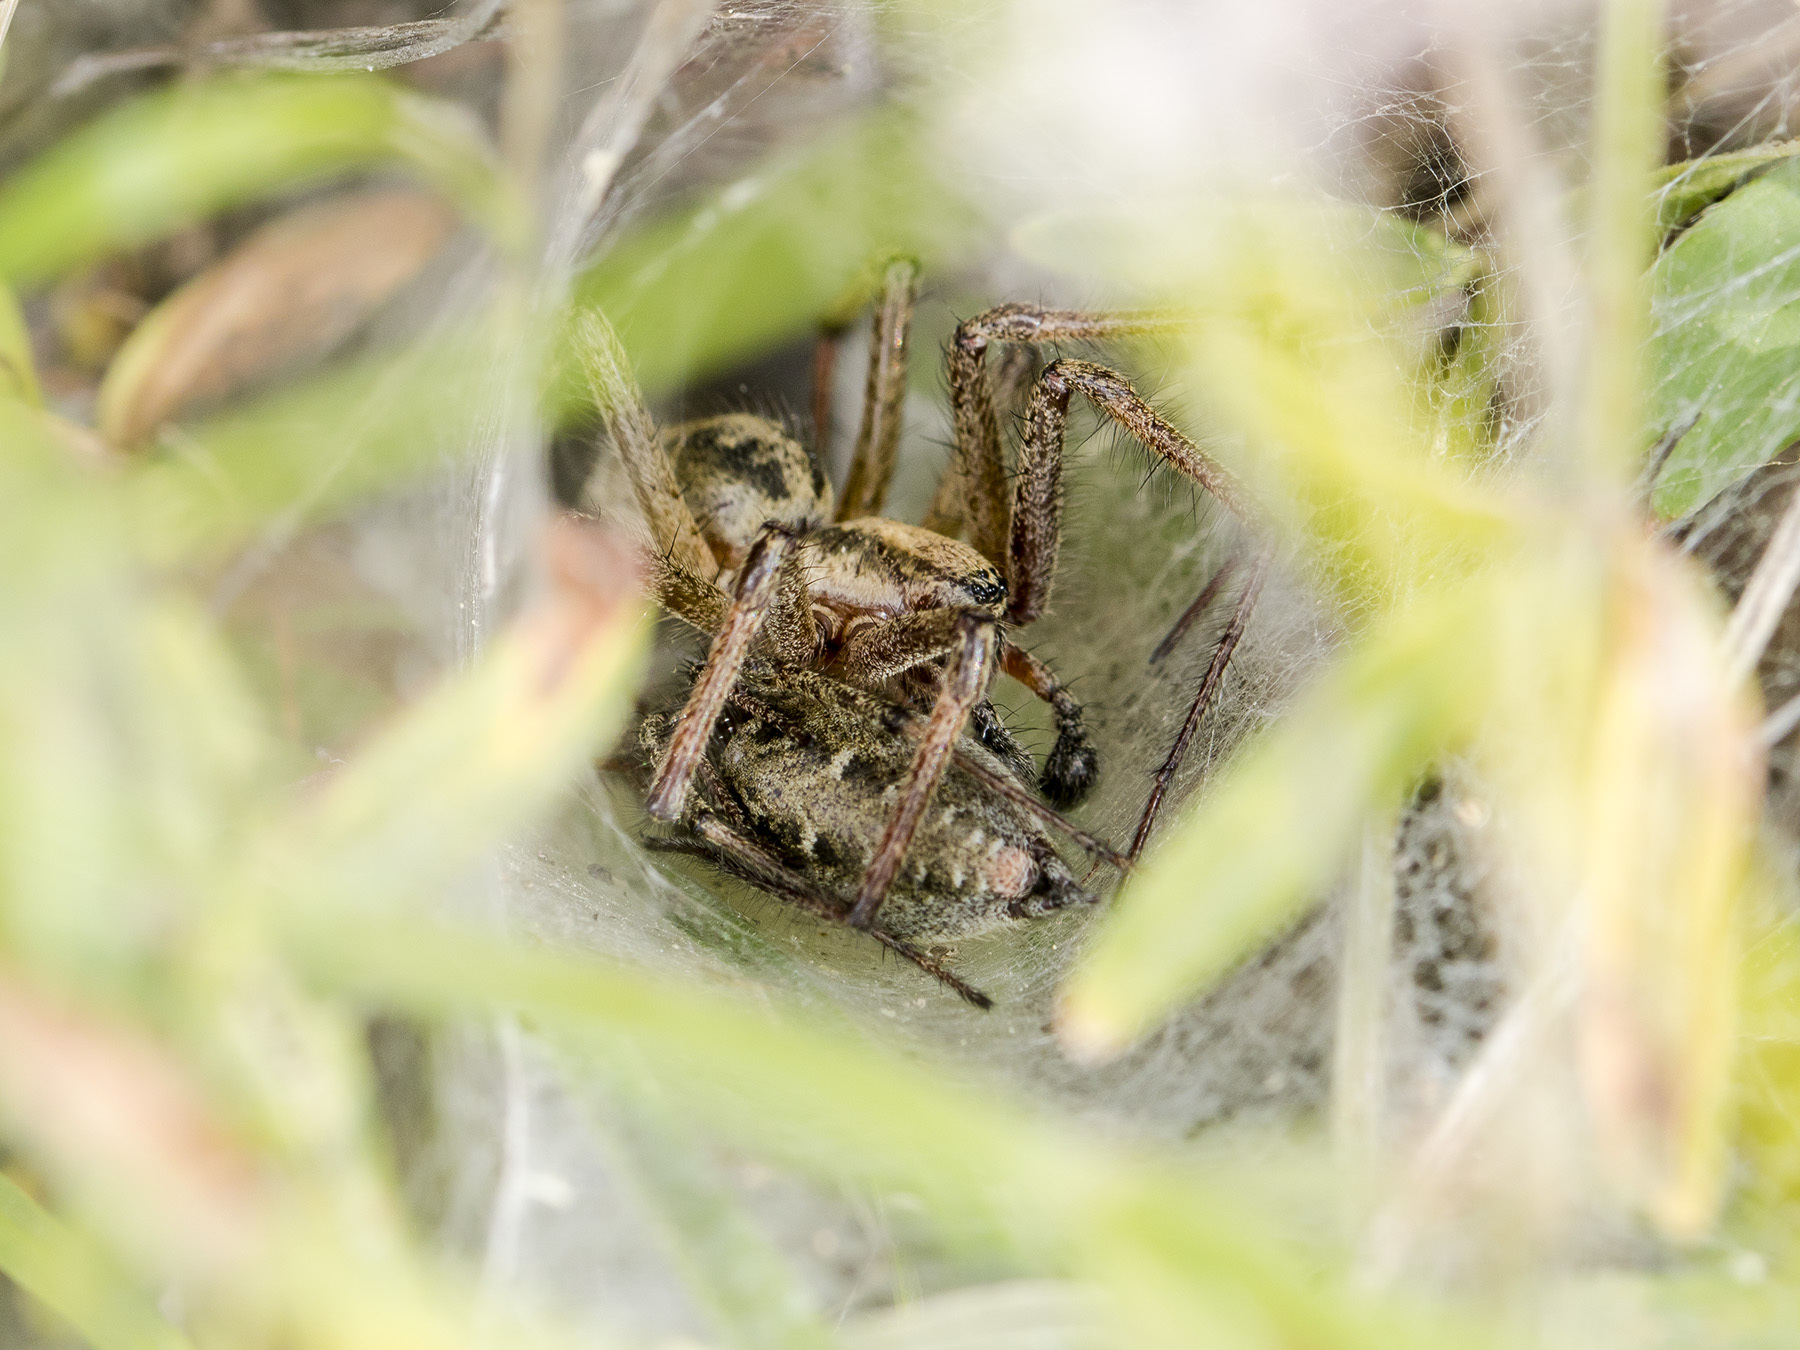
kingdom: Animalia
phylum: Arthropoda
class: Arachnida
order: Araneae
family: Agelenidae
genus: Agelena
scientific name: Agelena labyrinthica
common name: Labyrinth spider
